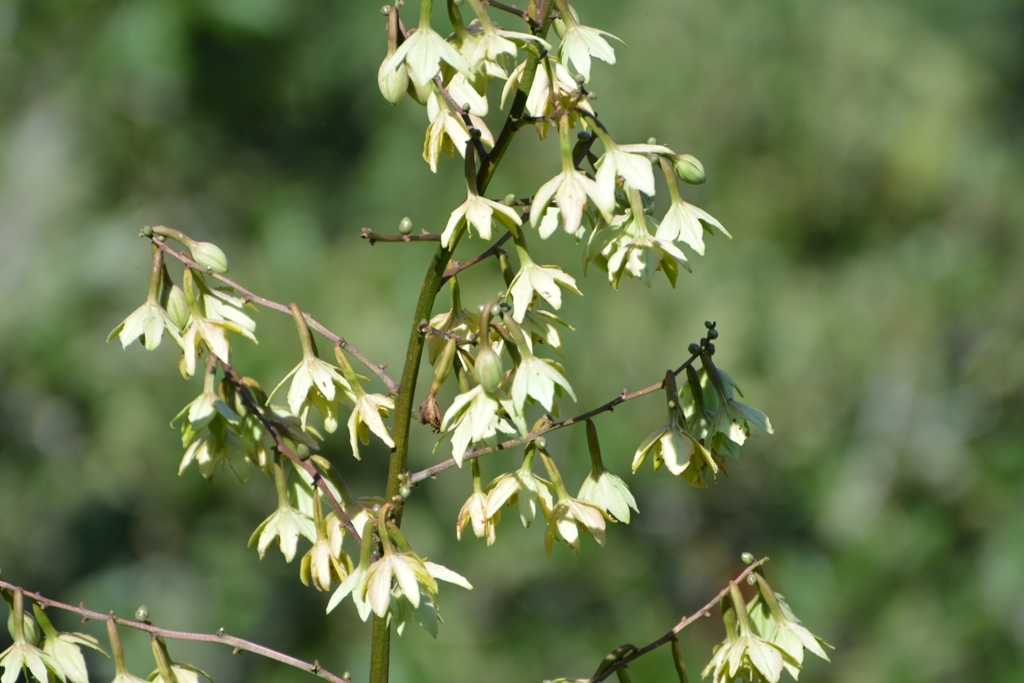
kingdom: Plantae
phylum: Tracheophyta
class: Liliopsida
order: Asparagales
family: Asparagaceae
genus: Furcraea
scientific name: Furcraea cabuya
